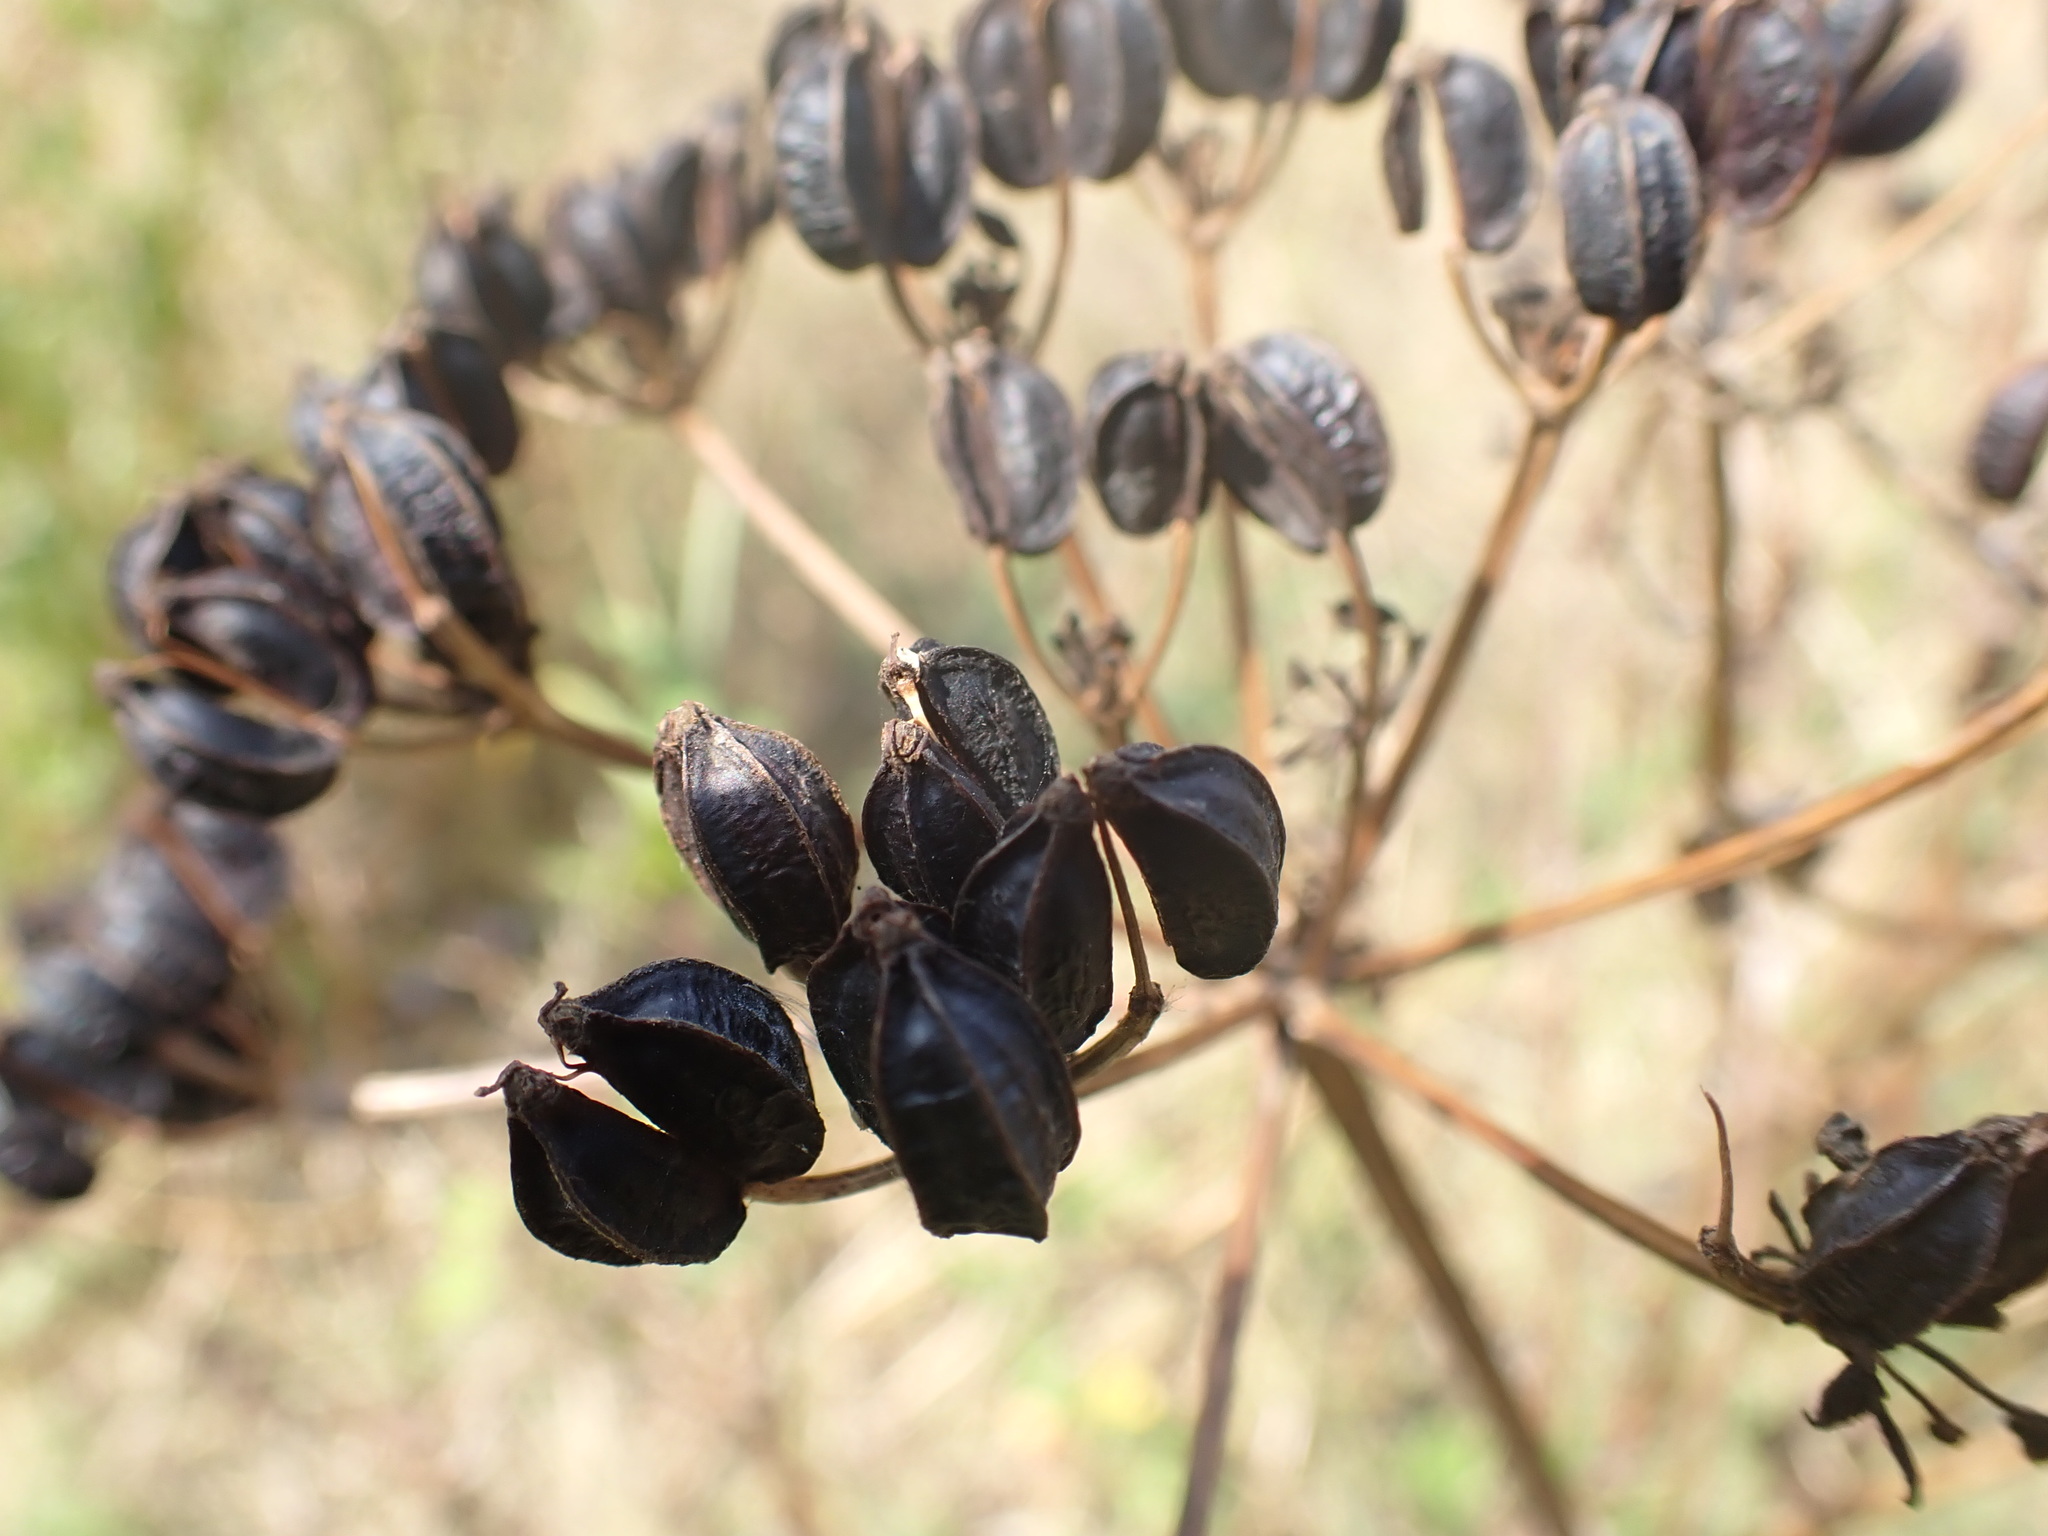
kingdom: Plantae
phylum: Tracheophyta
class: Magnoliopsida
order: Apiales
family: Apiaceae
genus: Smyrnium
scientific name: Smyrnium olusatrum
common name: Alexanders
